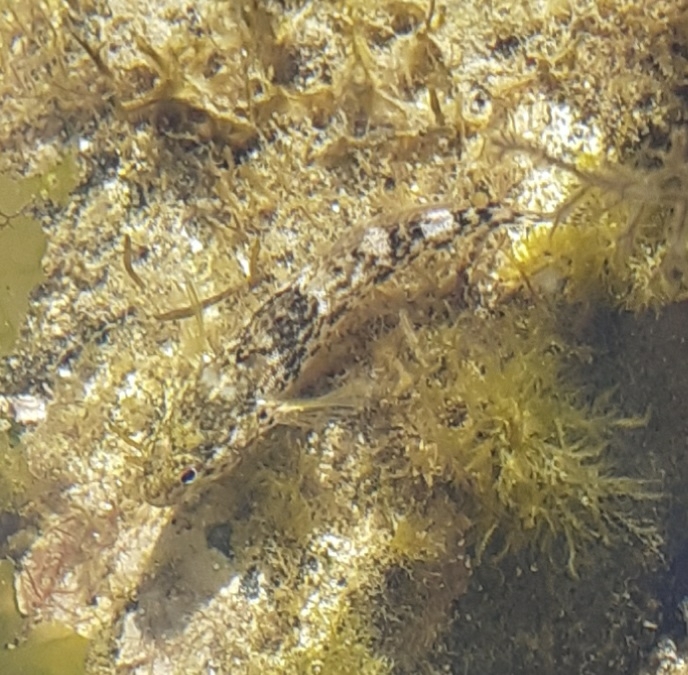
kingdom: Animalia
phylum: Chordata
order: Perciformes
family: Gobiidae
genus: Gobius
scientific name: Gobius cobitis
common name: Giant goby
